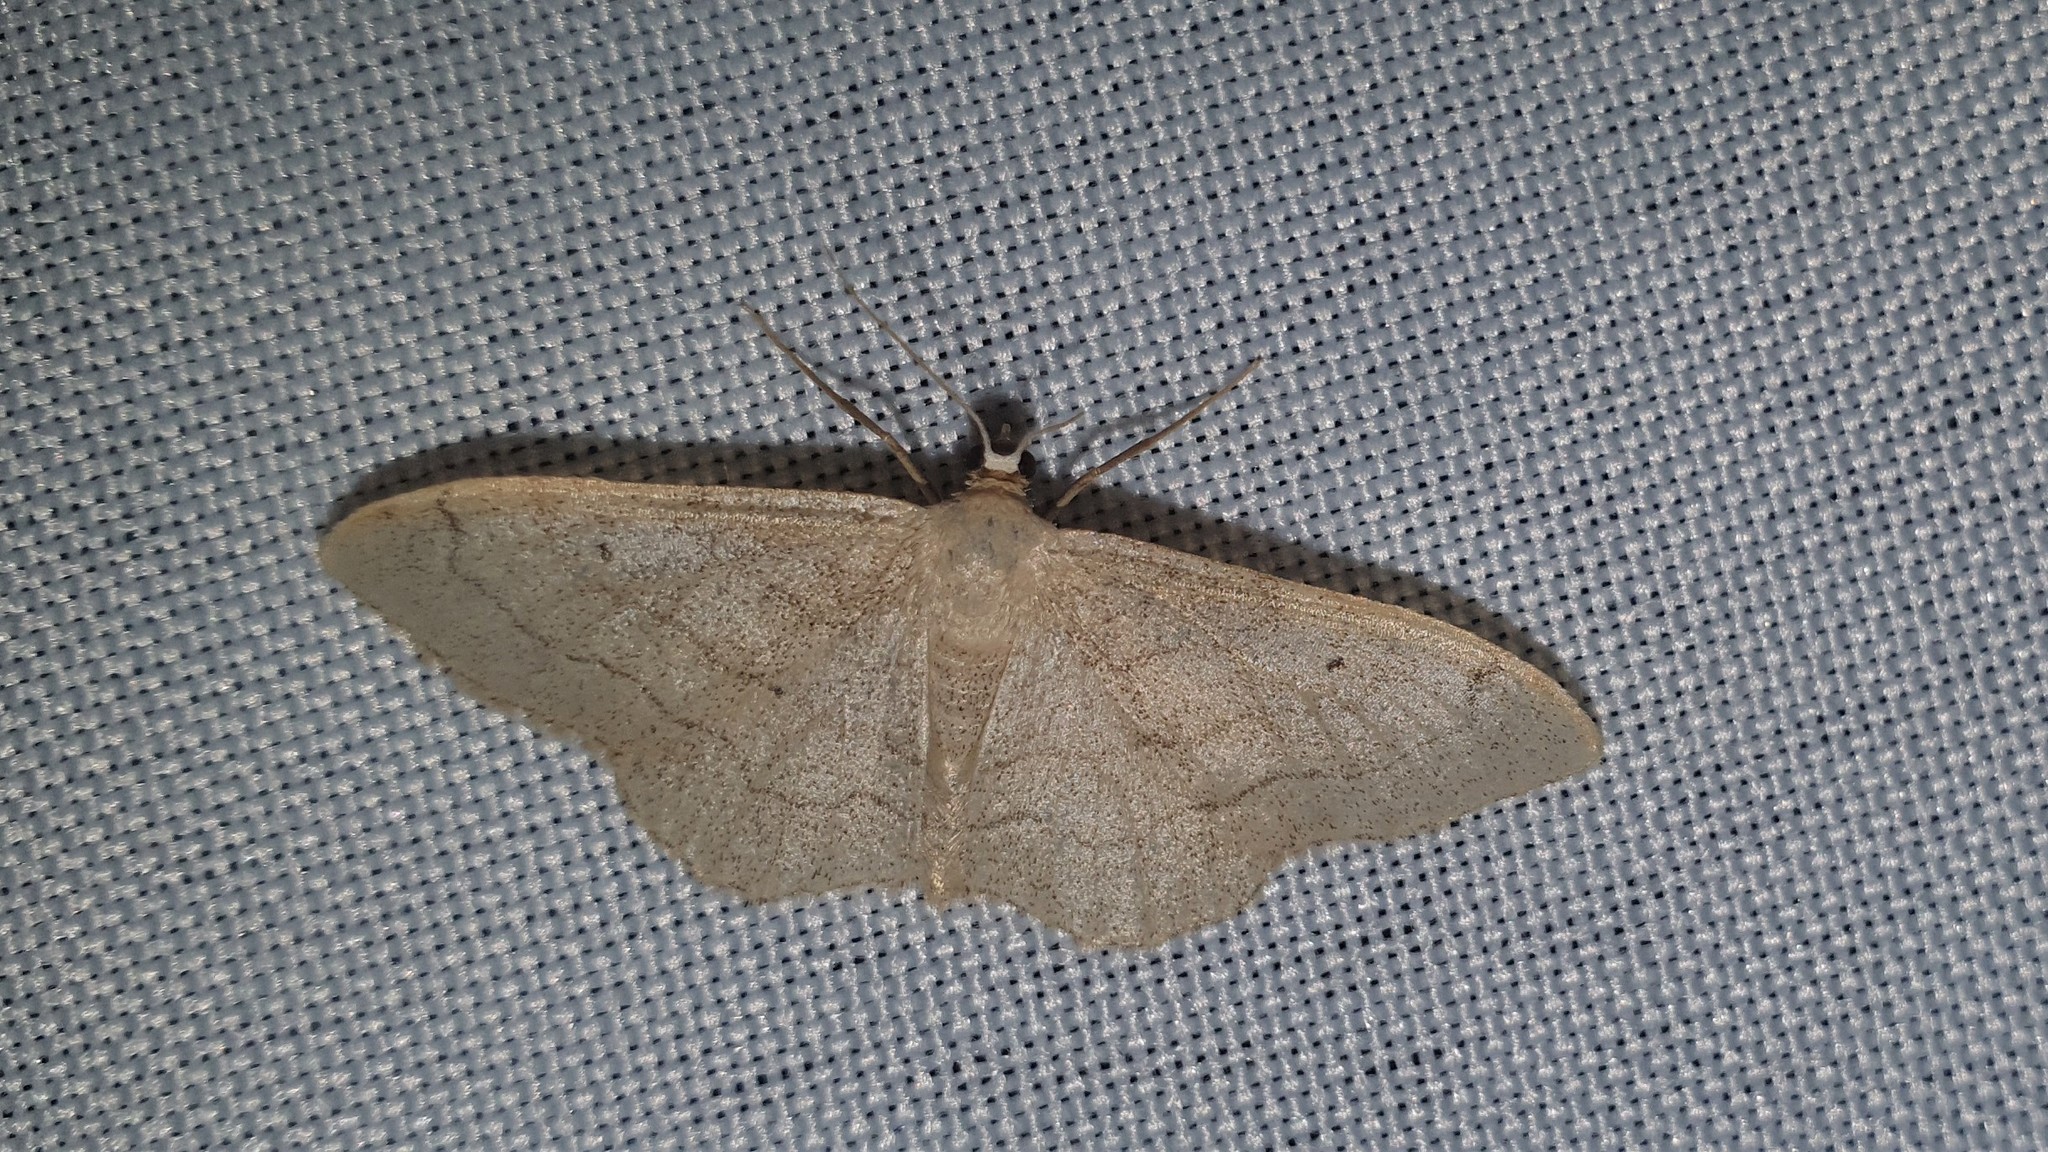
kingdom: Animalia
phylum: Arthropoda
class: Insecta
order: Lepidoptera
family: Geometridae
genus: Idaea
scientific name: Idaea aversata
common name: Riband wave
